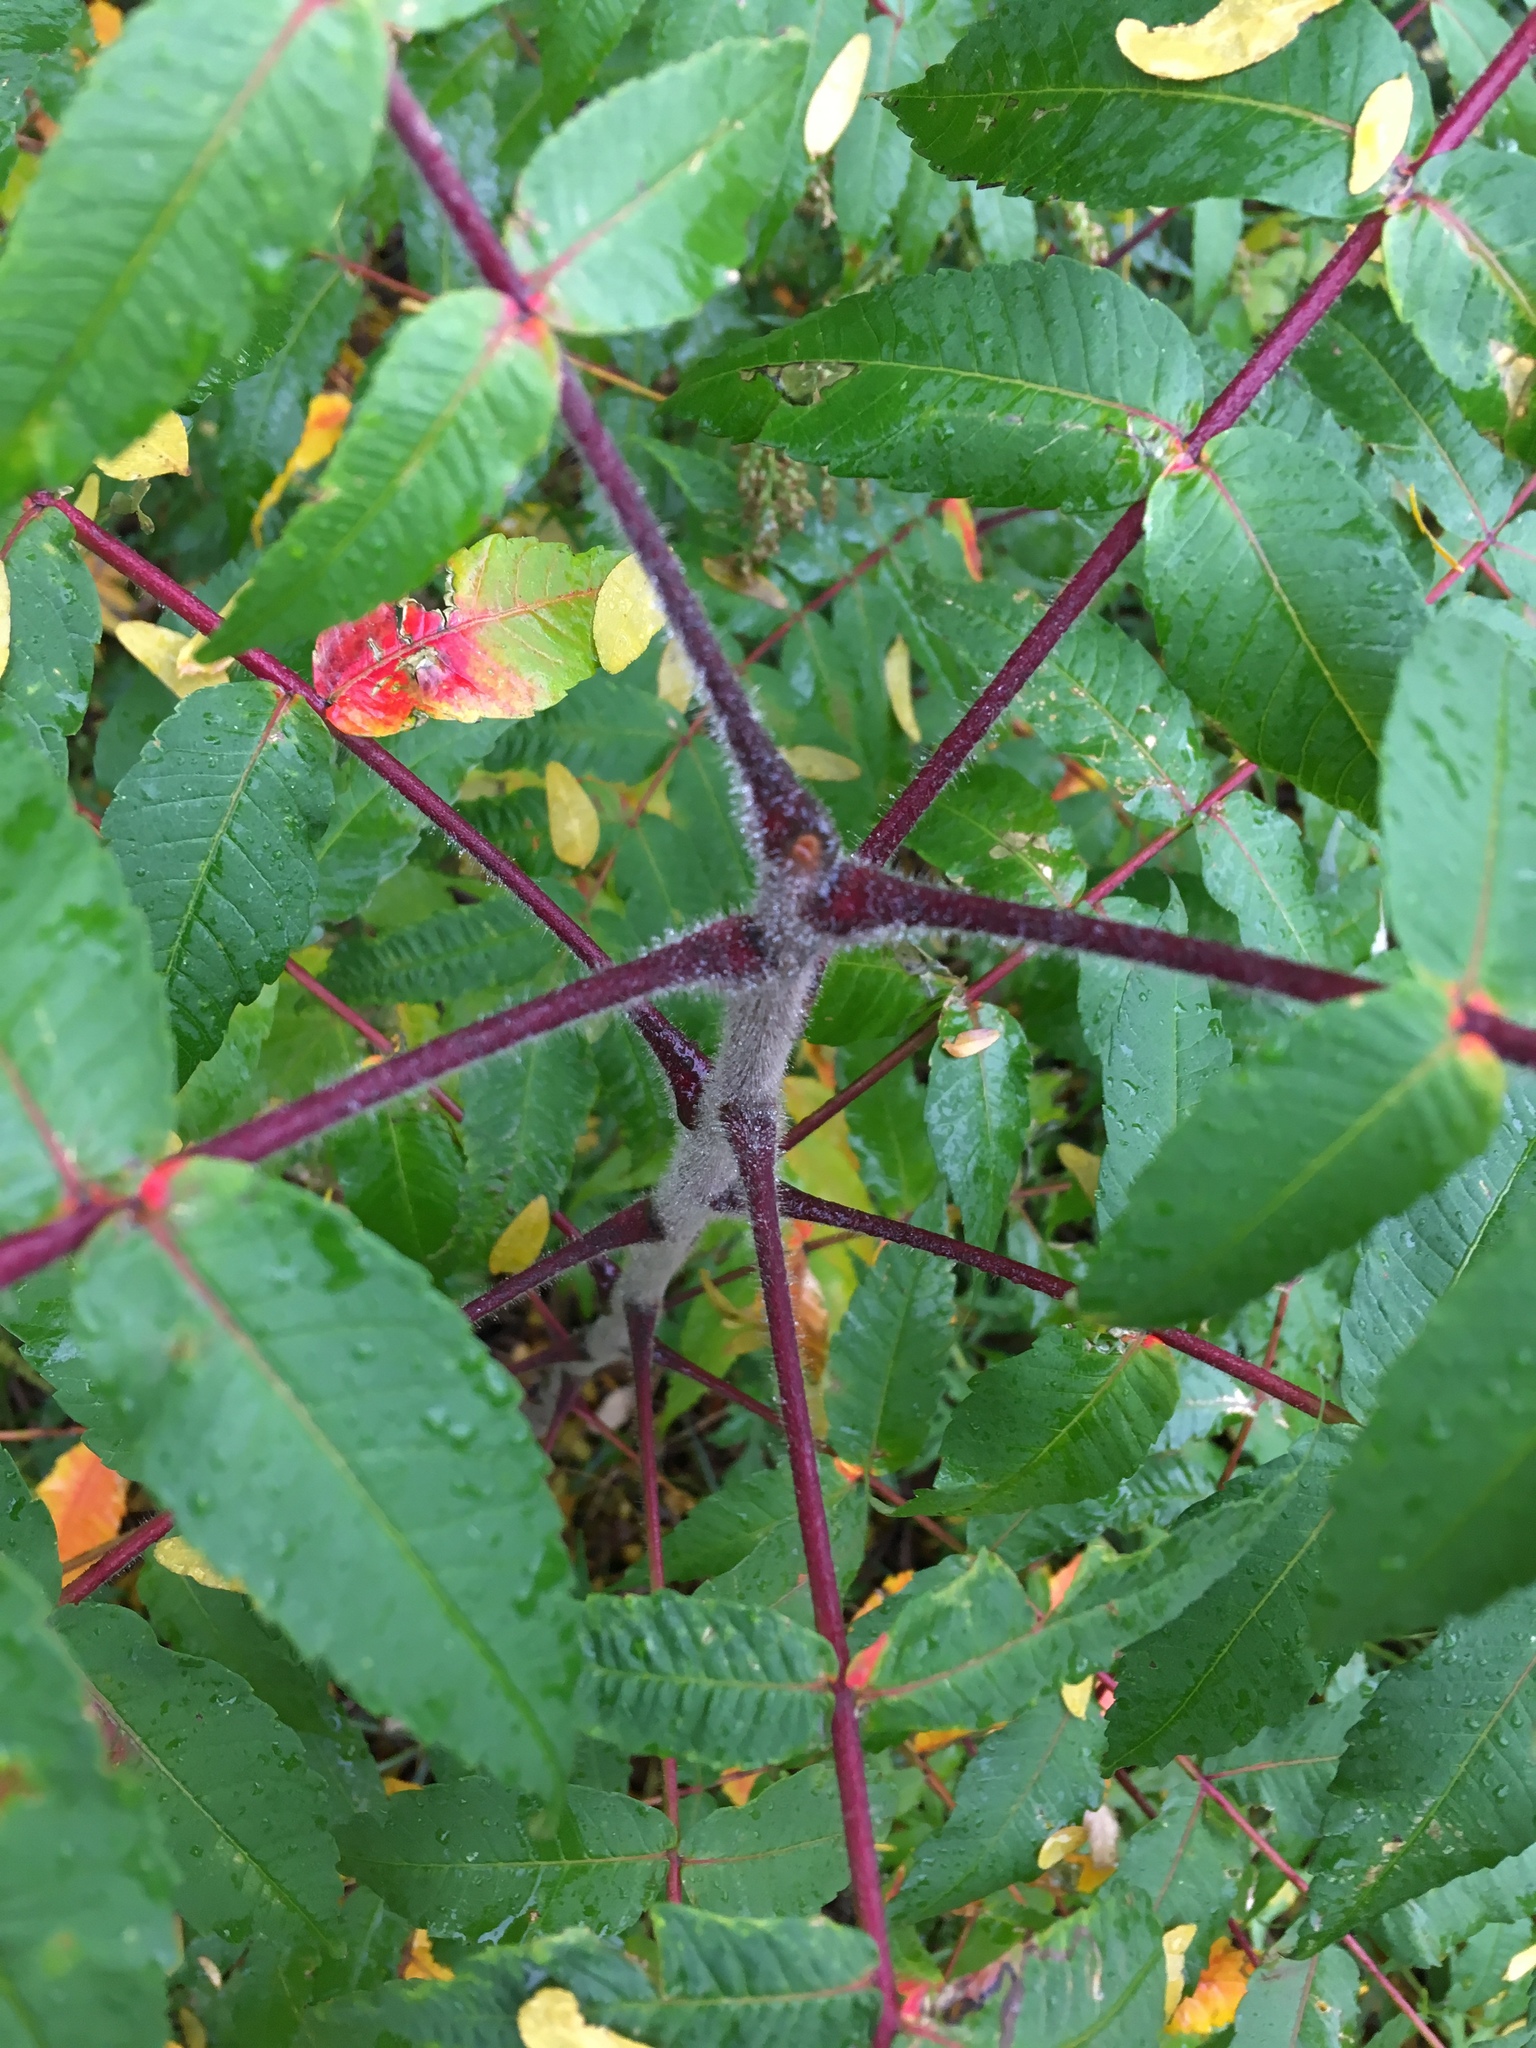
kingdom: Plantae
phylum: Tracheophyta
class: Magnoliopsida
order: Sapindales
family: Anacardiaceae
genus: Rhus
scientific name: Rhus typhina
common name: Staghorn sumac
